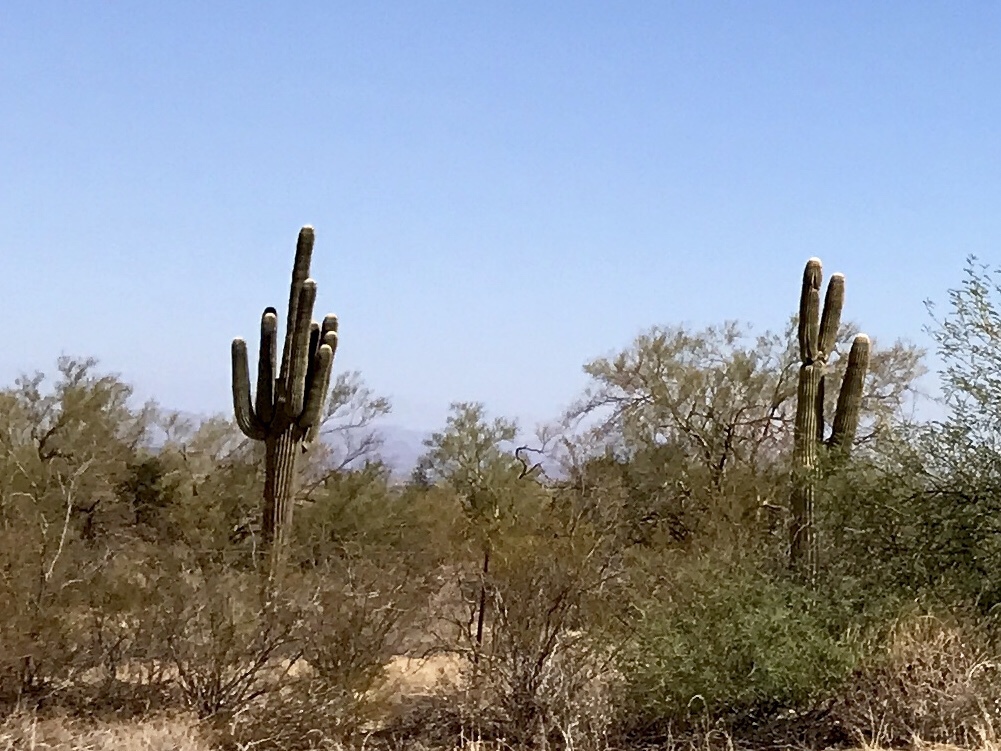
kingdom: Plantae
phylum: Tracheophyta
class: Magnoliopsida
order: Caryophyllales
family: Cactaceae
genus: Carnegiea
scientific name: Carnegiea gigantea
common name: Saguaro
